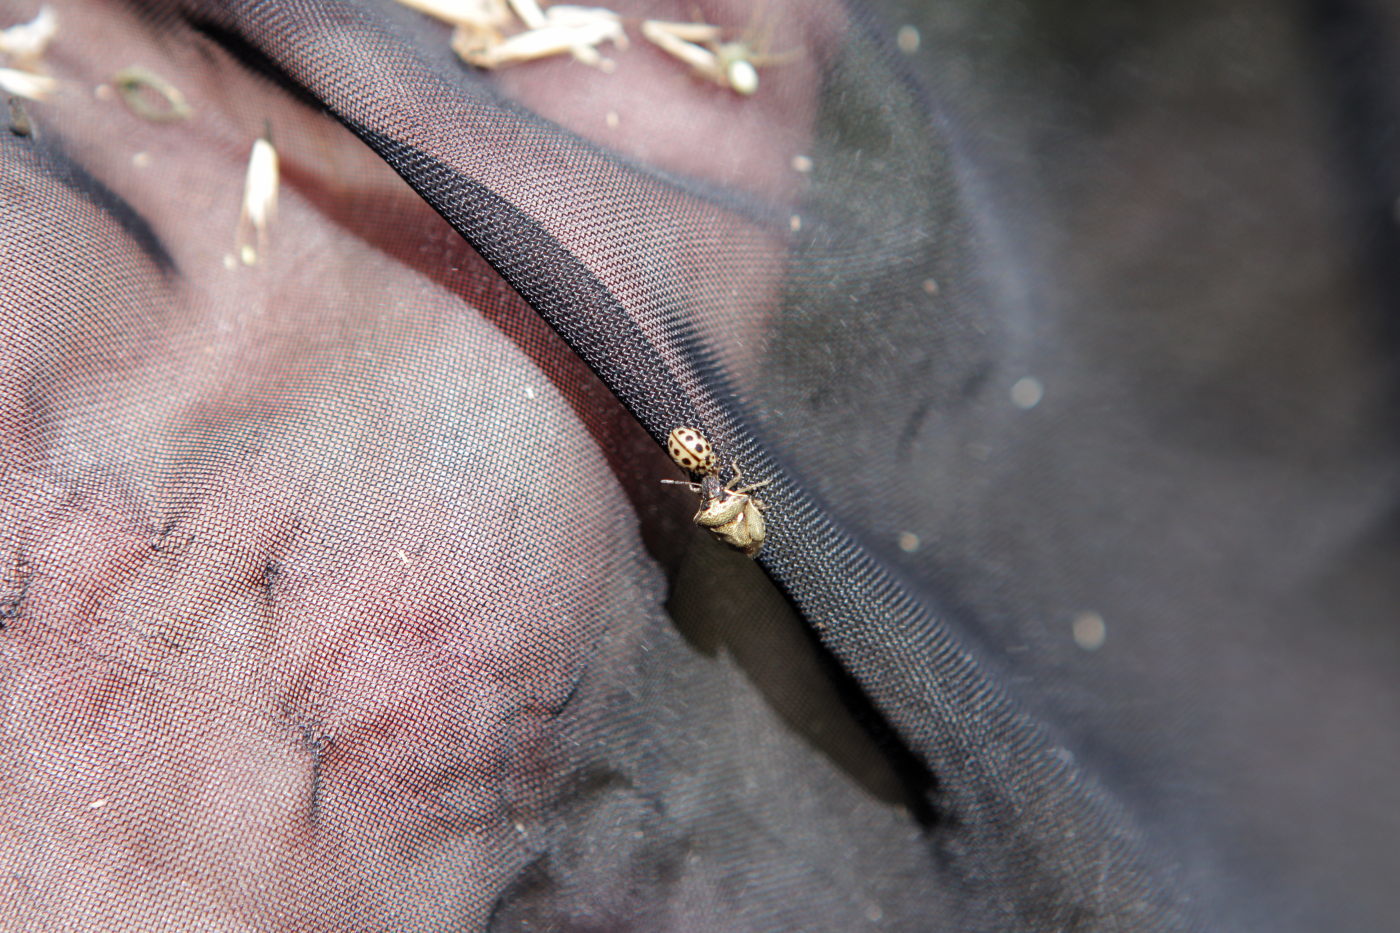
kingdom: Animalia
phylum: Arthropoda
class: Insecta
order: Hemiptera
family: Pentatomidae
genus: Eysarcoris
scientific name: Eysarcoris aeneus
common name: New forest shieldbug
